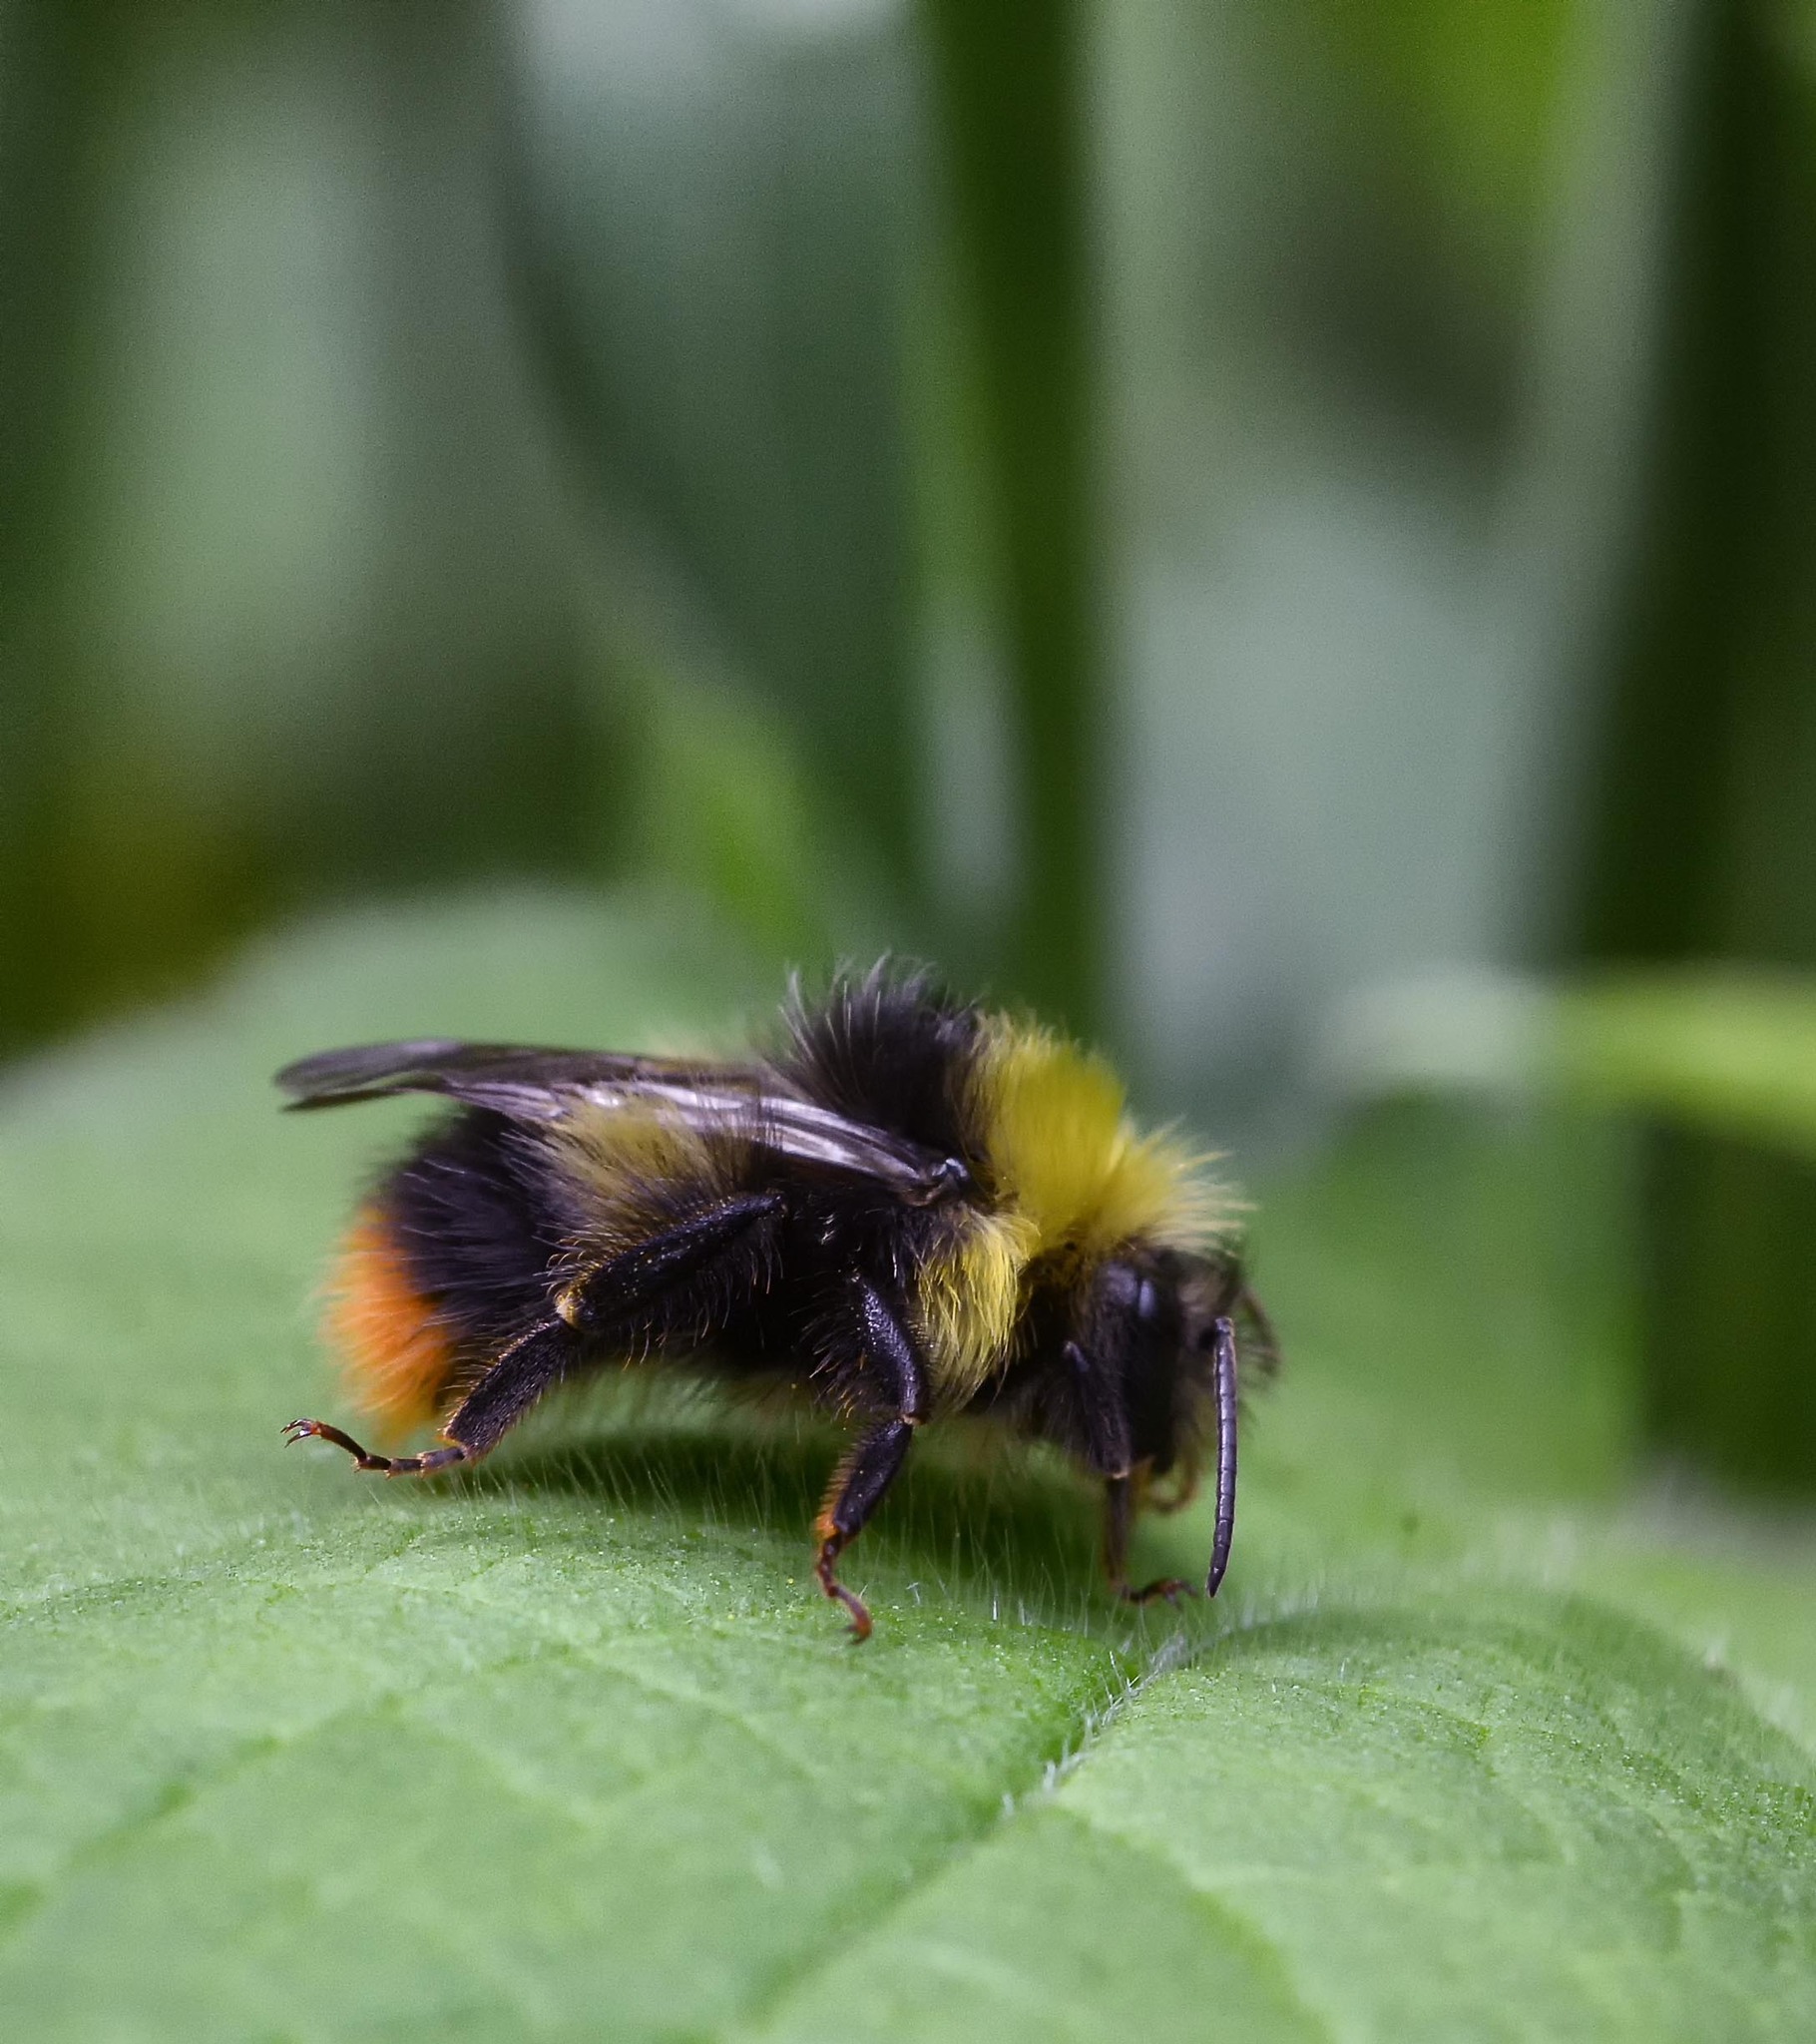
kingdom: Animalia
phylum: Arthropoda
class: Insecta
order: Hymenoptera
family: Apidae
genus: Bombus
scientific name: Bombus pratorum
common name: Early humble-bee
